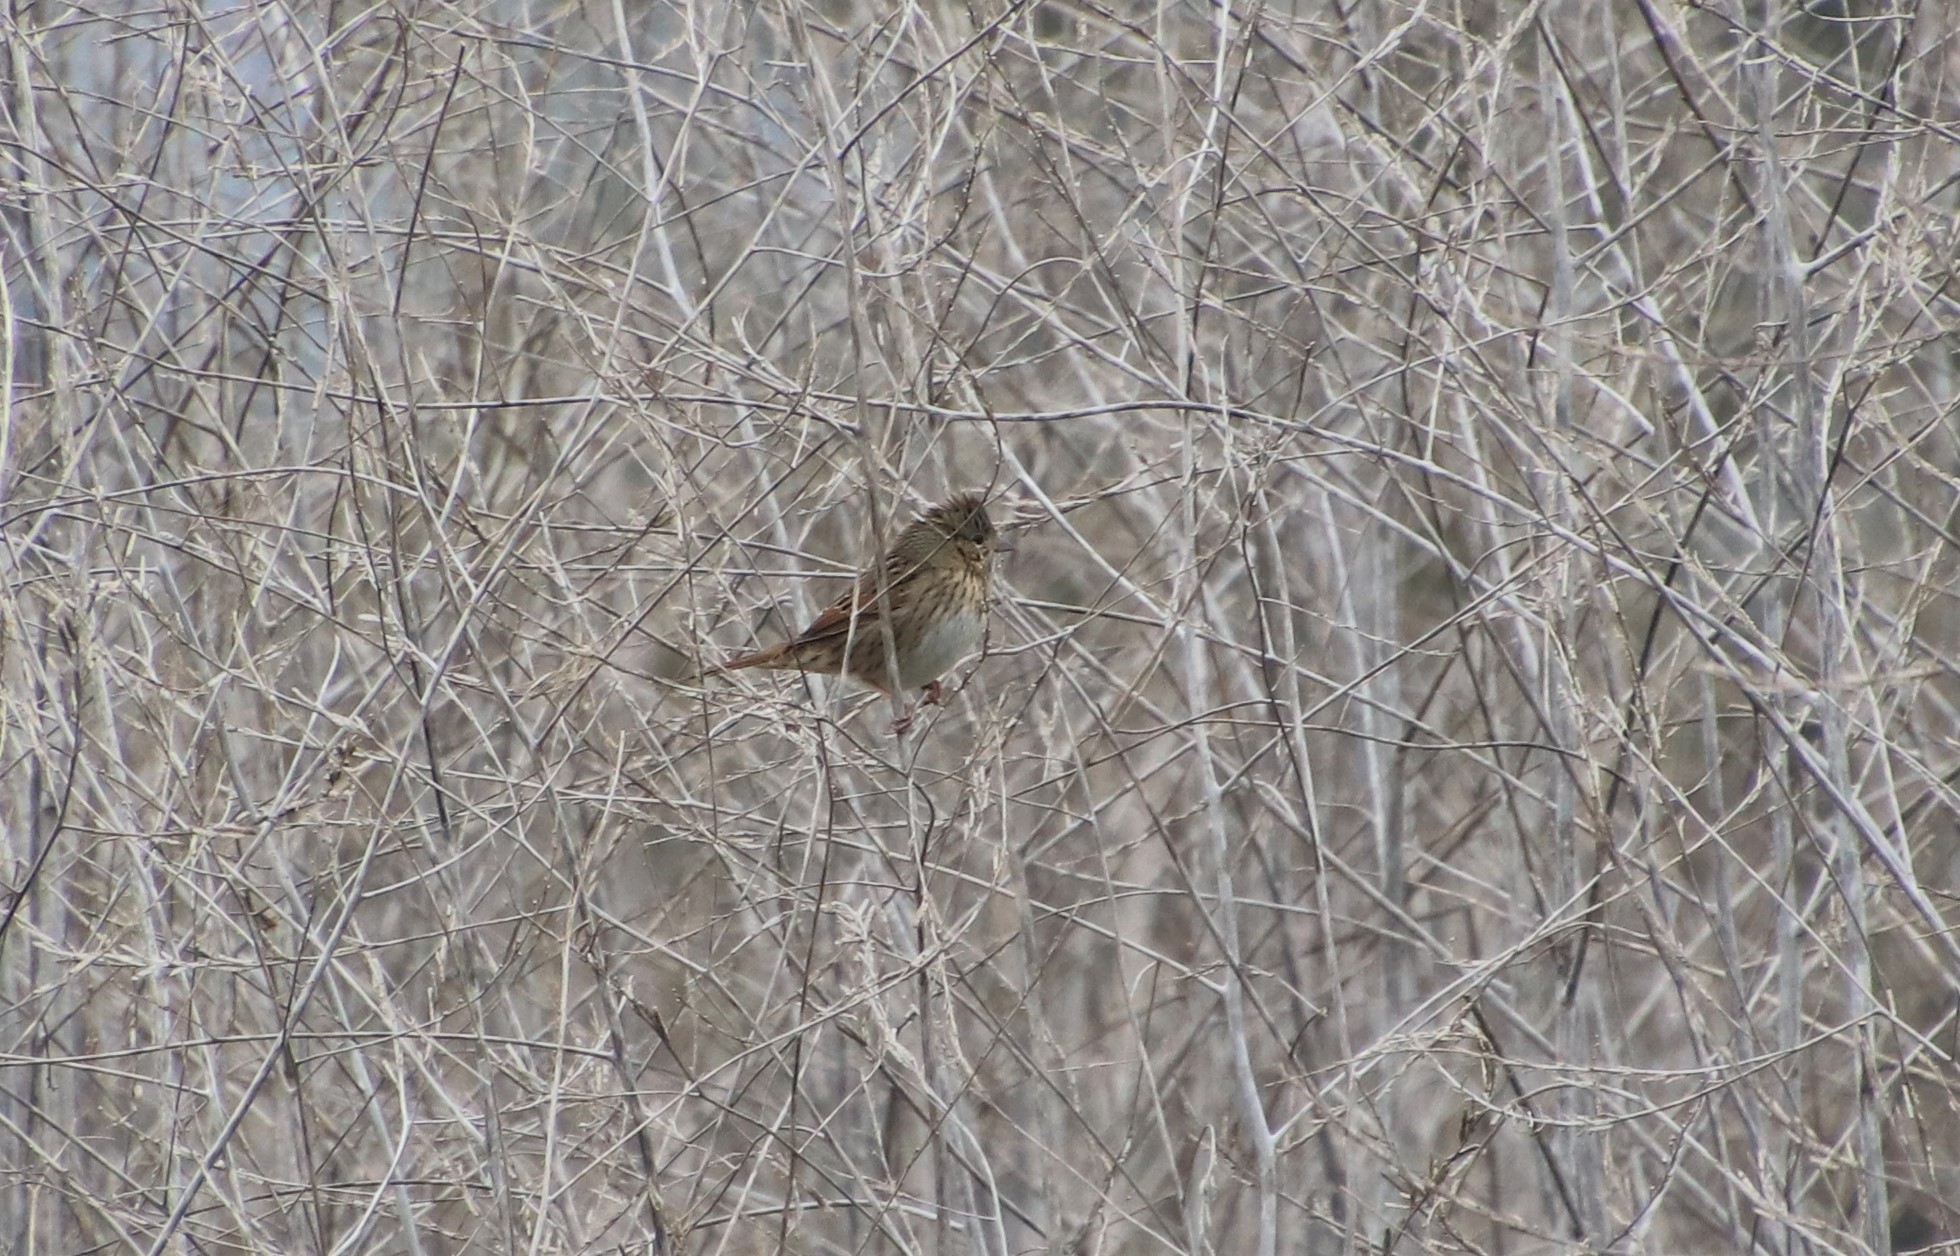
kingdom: Animalia
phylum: Chordata
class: Aves
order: Passeriformes
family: Passerellidae
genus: Melospiza
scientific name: Melospiza lincolnii
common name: Lincoln's sparrow
